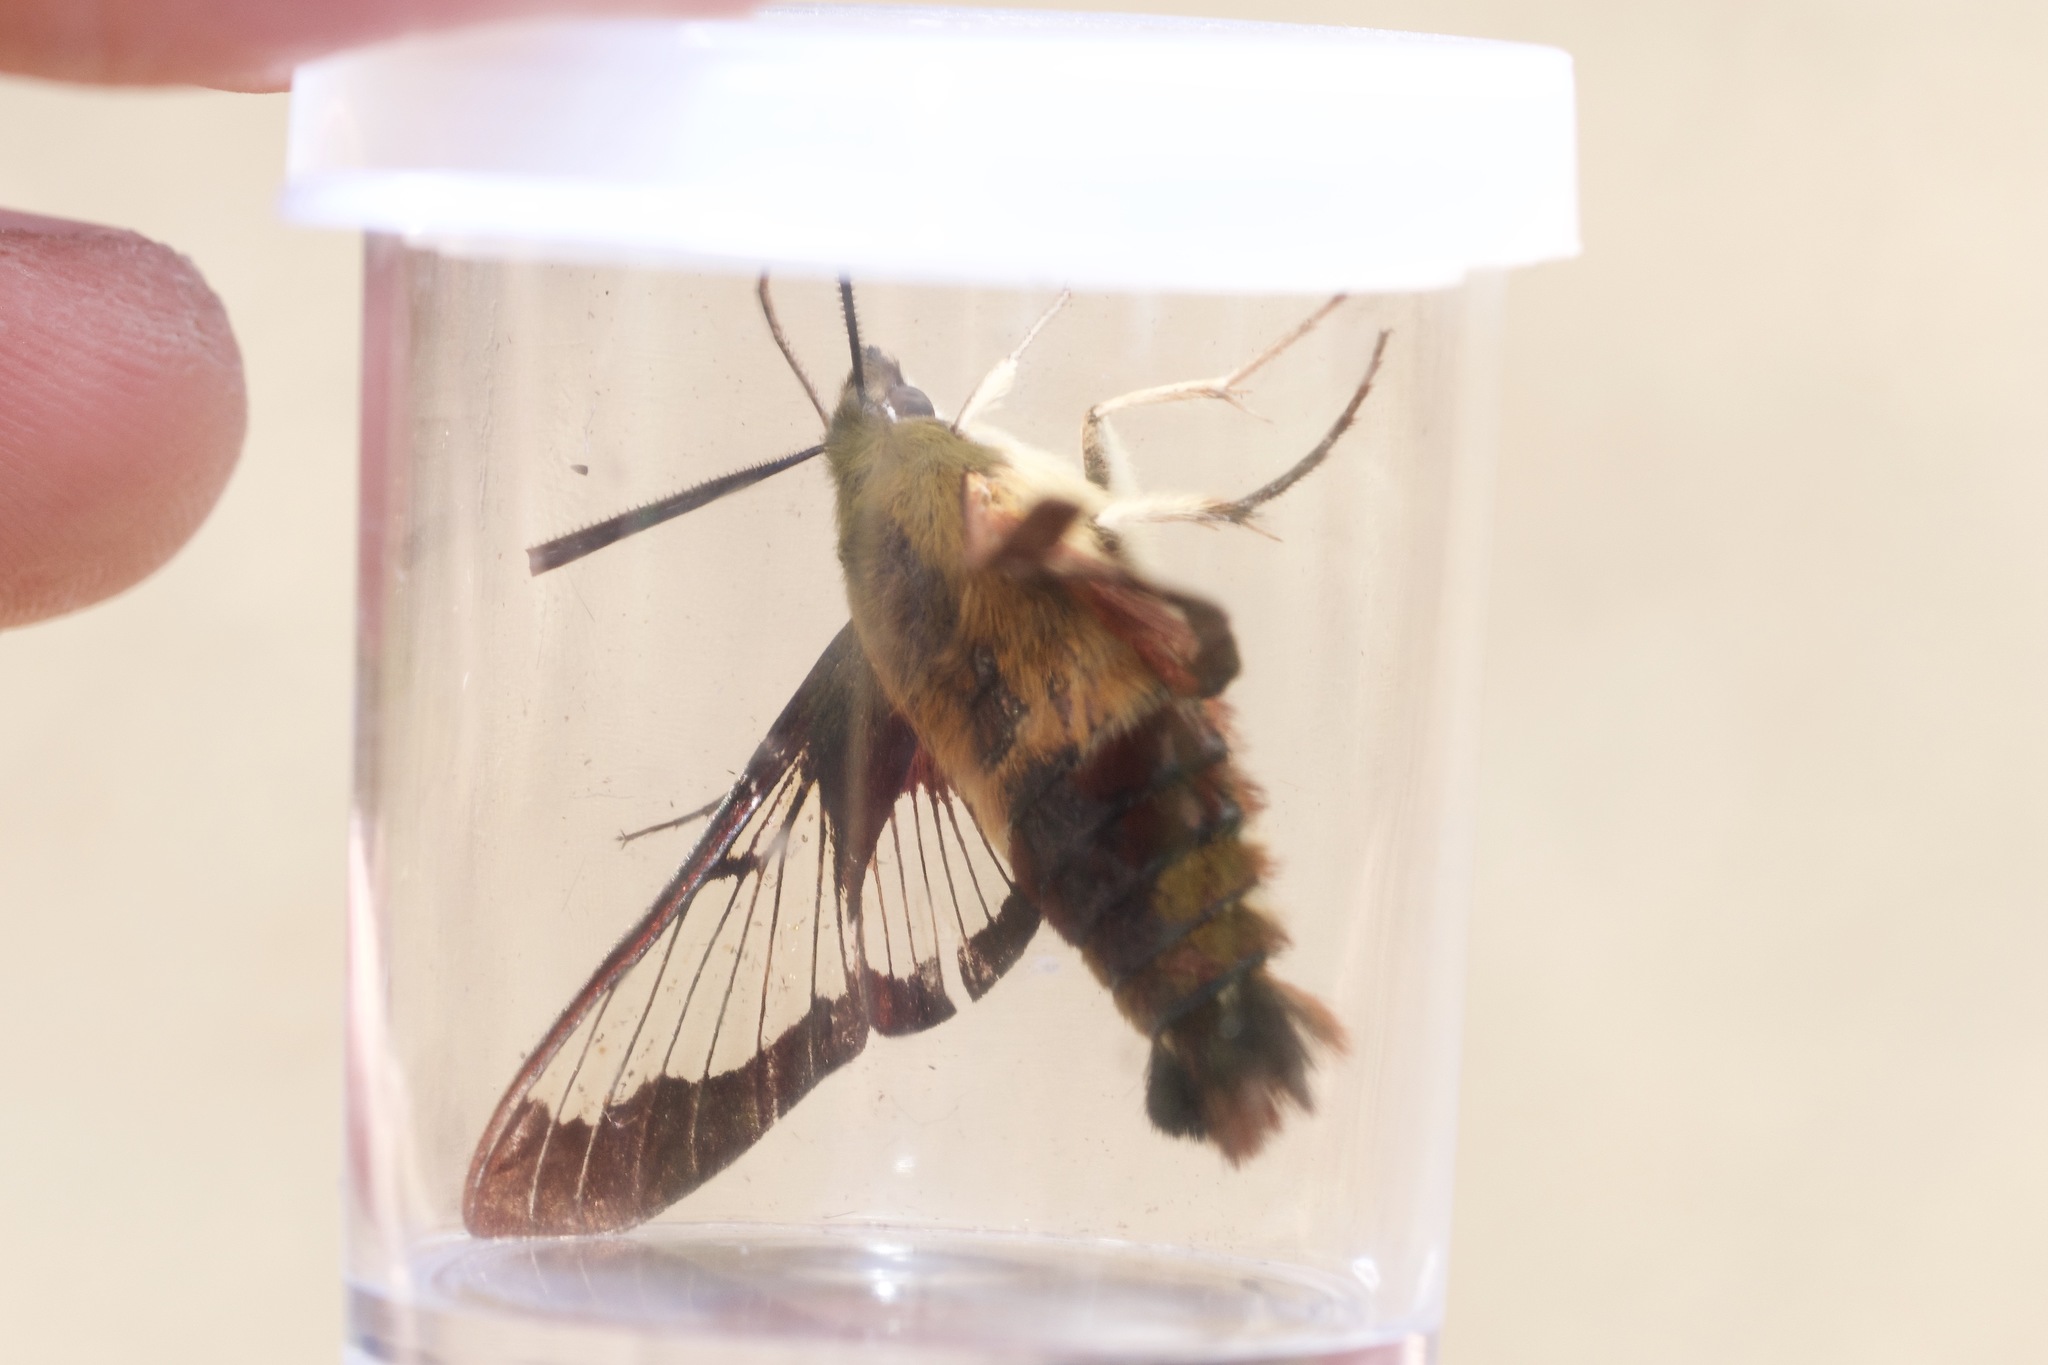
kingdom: Animalia
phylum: Arthropoda
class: Insecta
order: Lepidoptera
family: Sphingidae
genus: Hemaris
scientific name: Hemaris thysbe
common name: Common clear-wing
